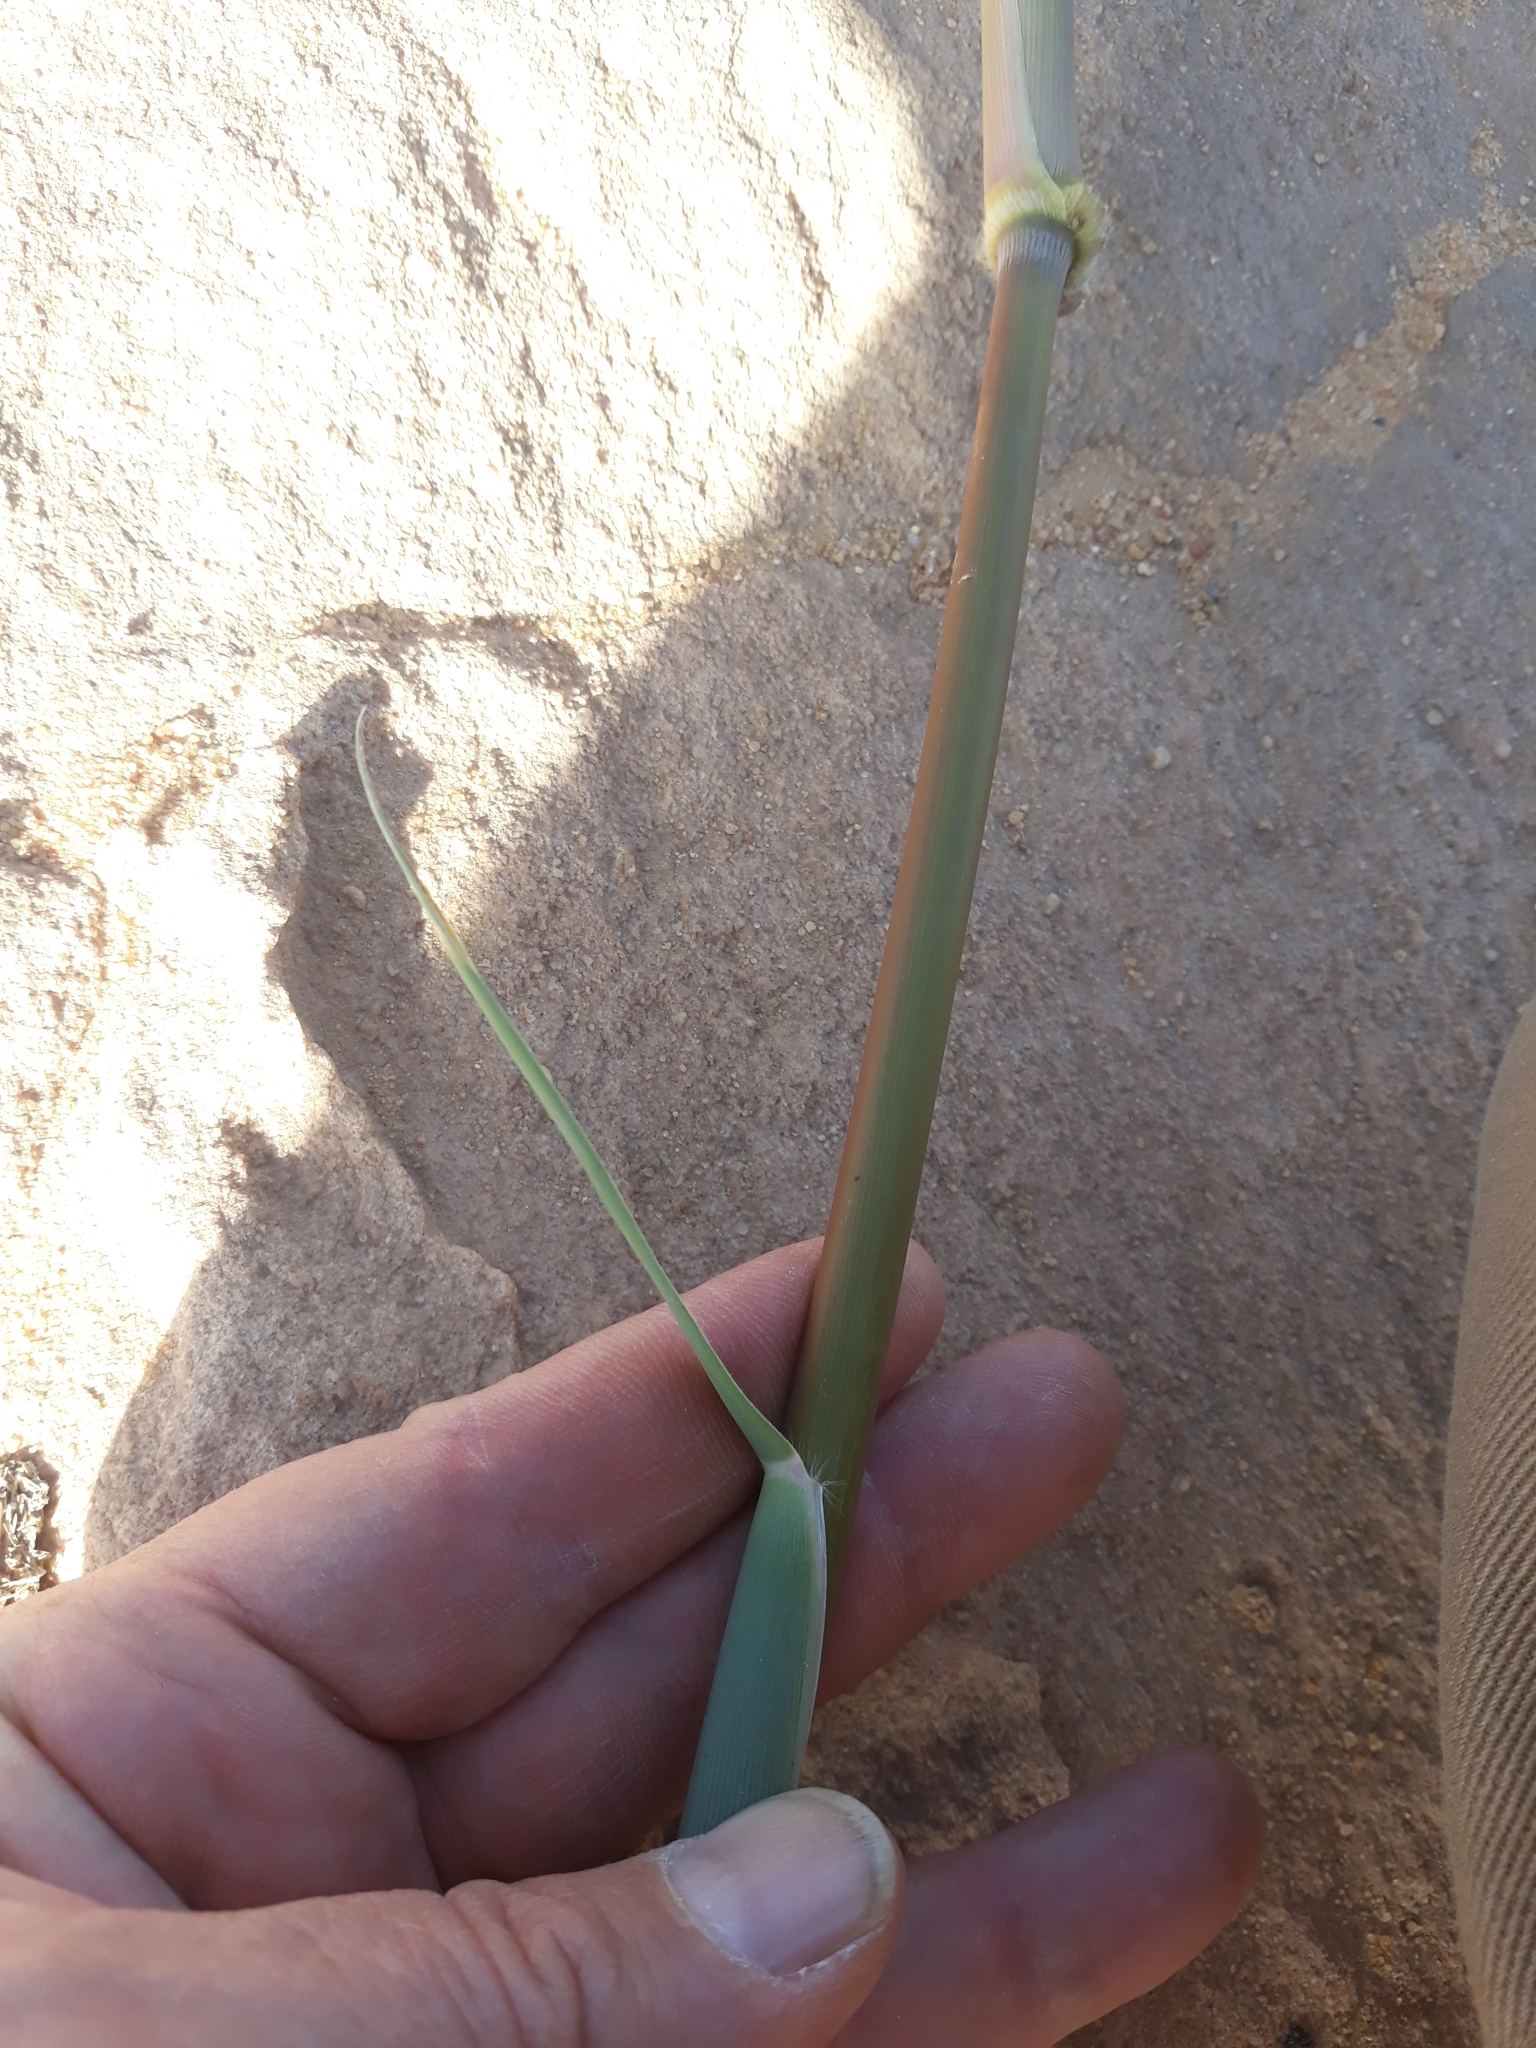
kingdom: Plantae
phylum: Tracheophyta
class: Liliopsida
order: Poales
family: Poaceae
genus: Phragmites
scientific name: Phragmites australis
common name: Common reed
